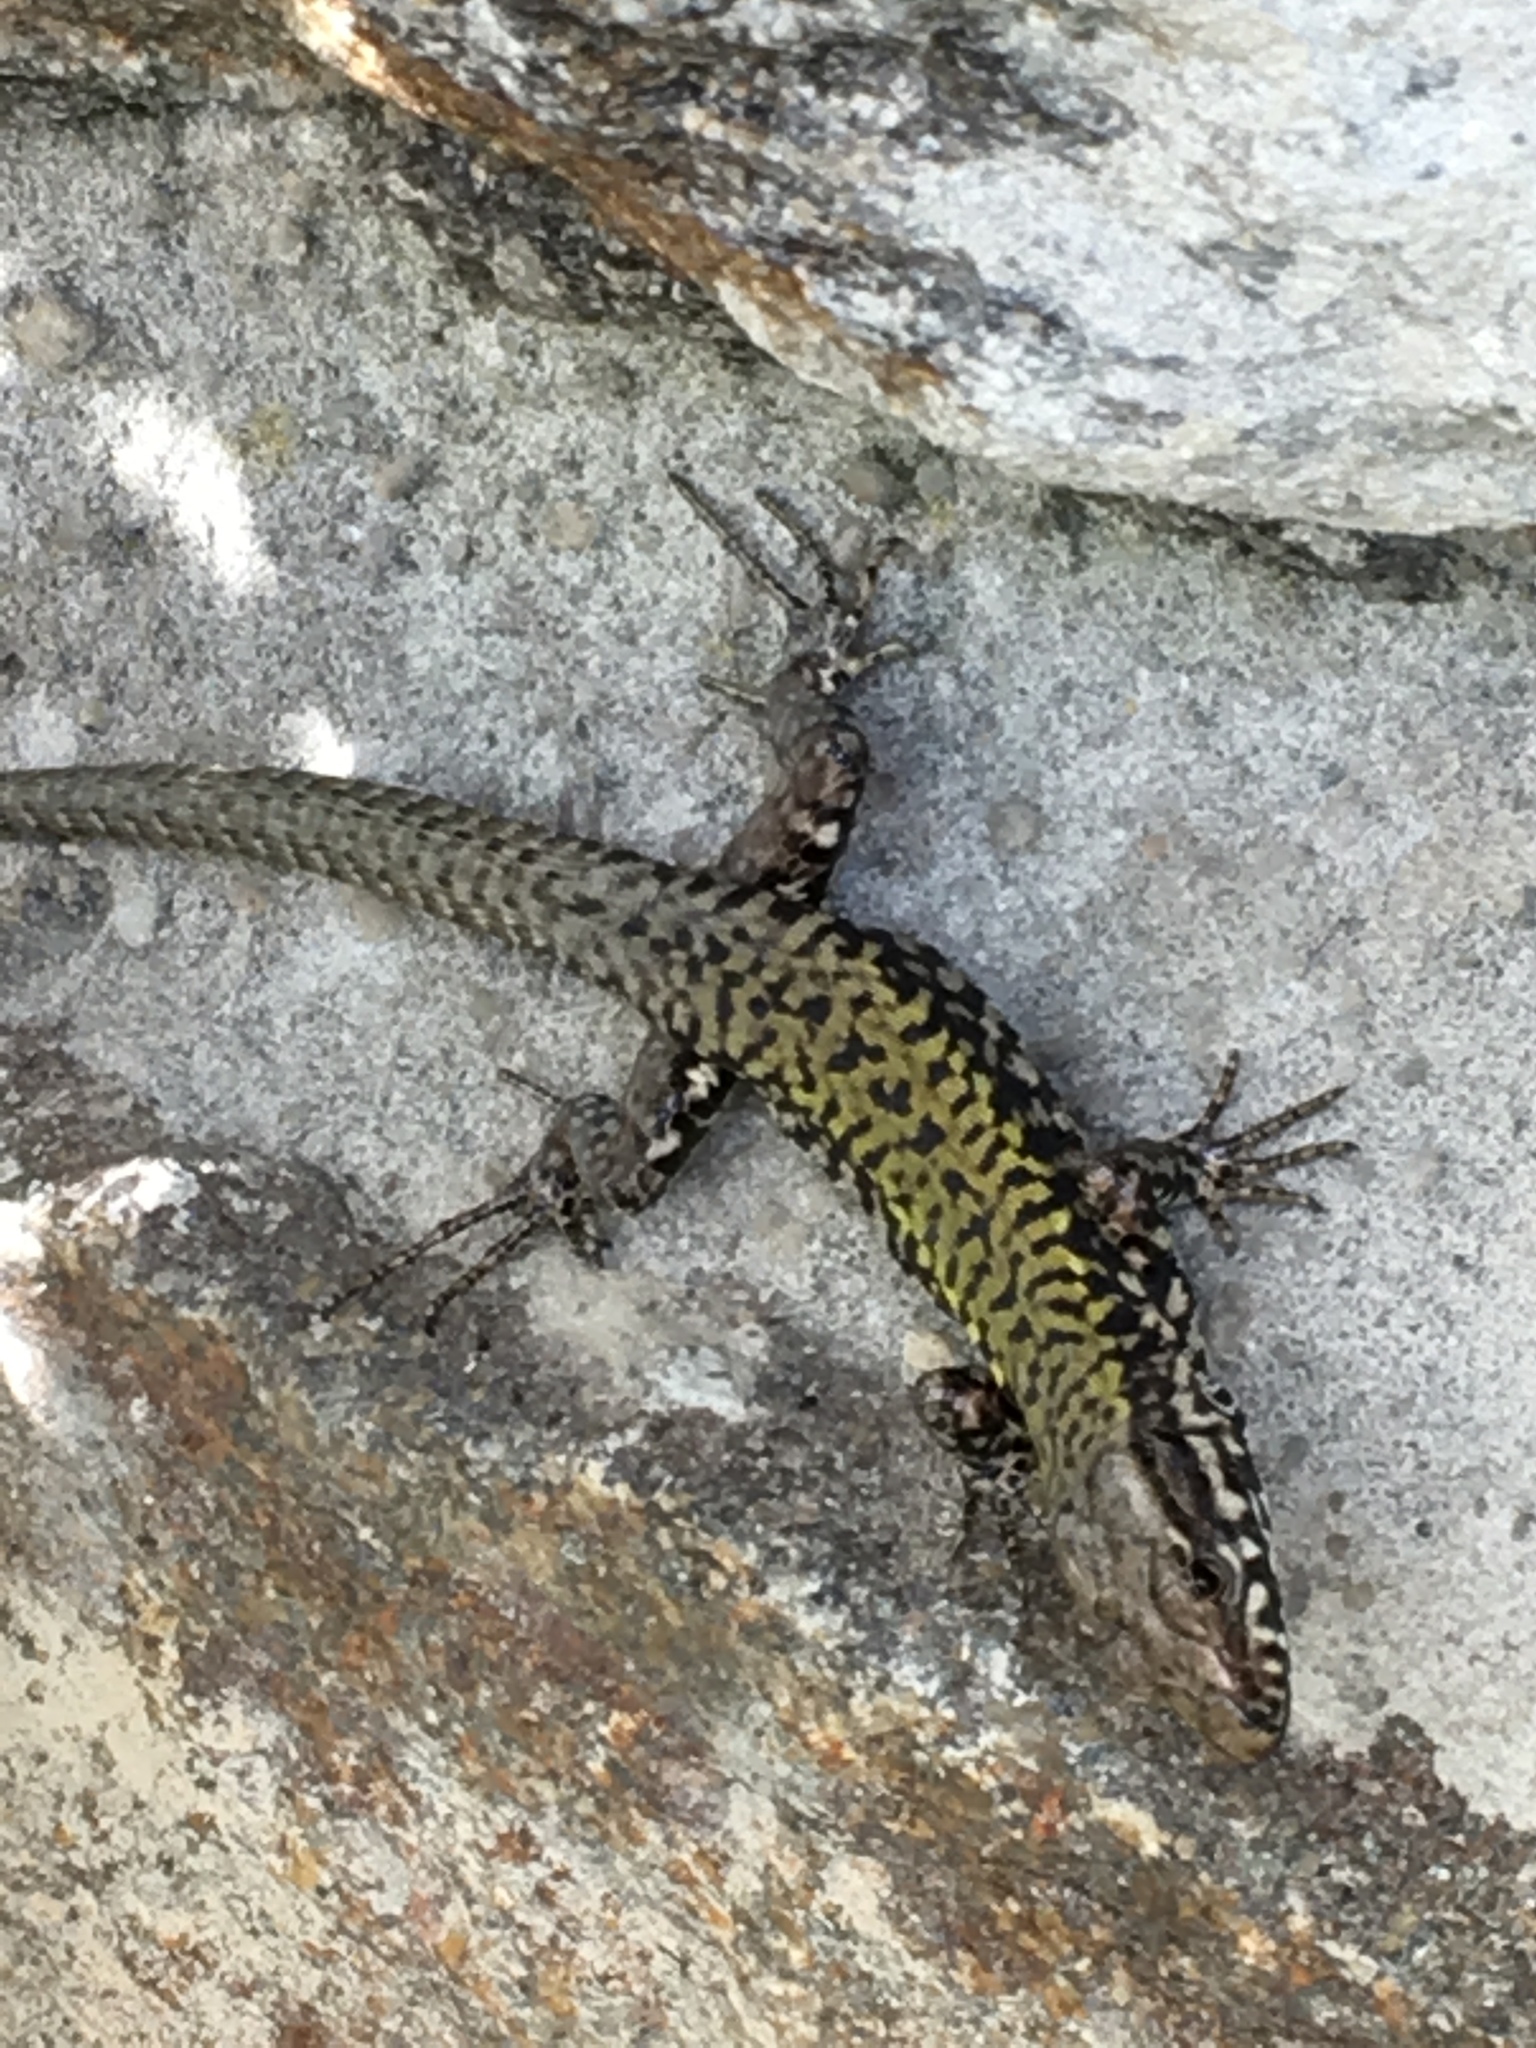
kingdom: Animalia
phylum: Chordata
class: Squamata
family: Lacertidae
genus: Podarcis
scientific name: Podarcis muralis
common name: Common wall lizard
